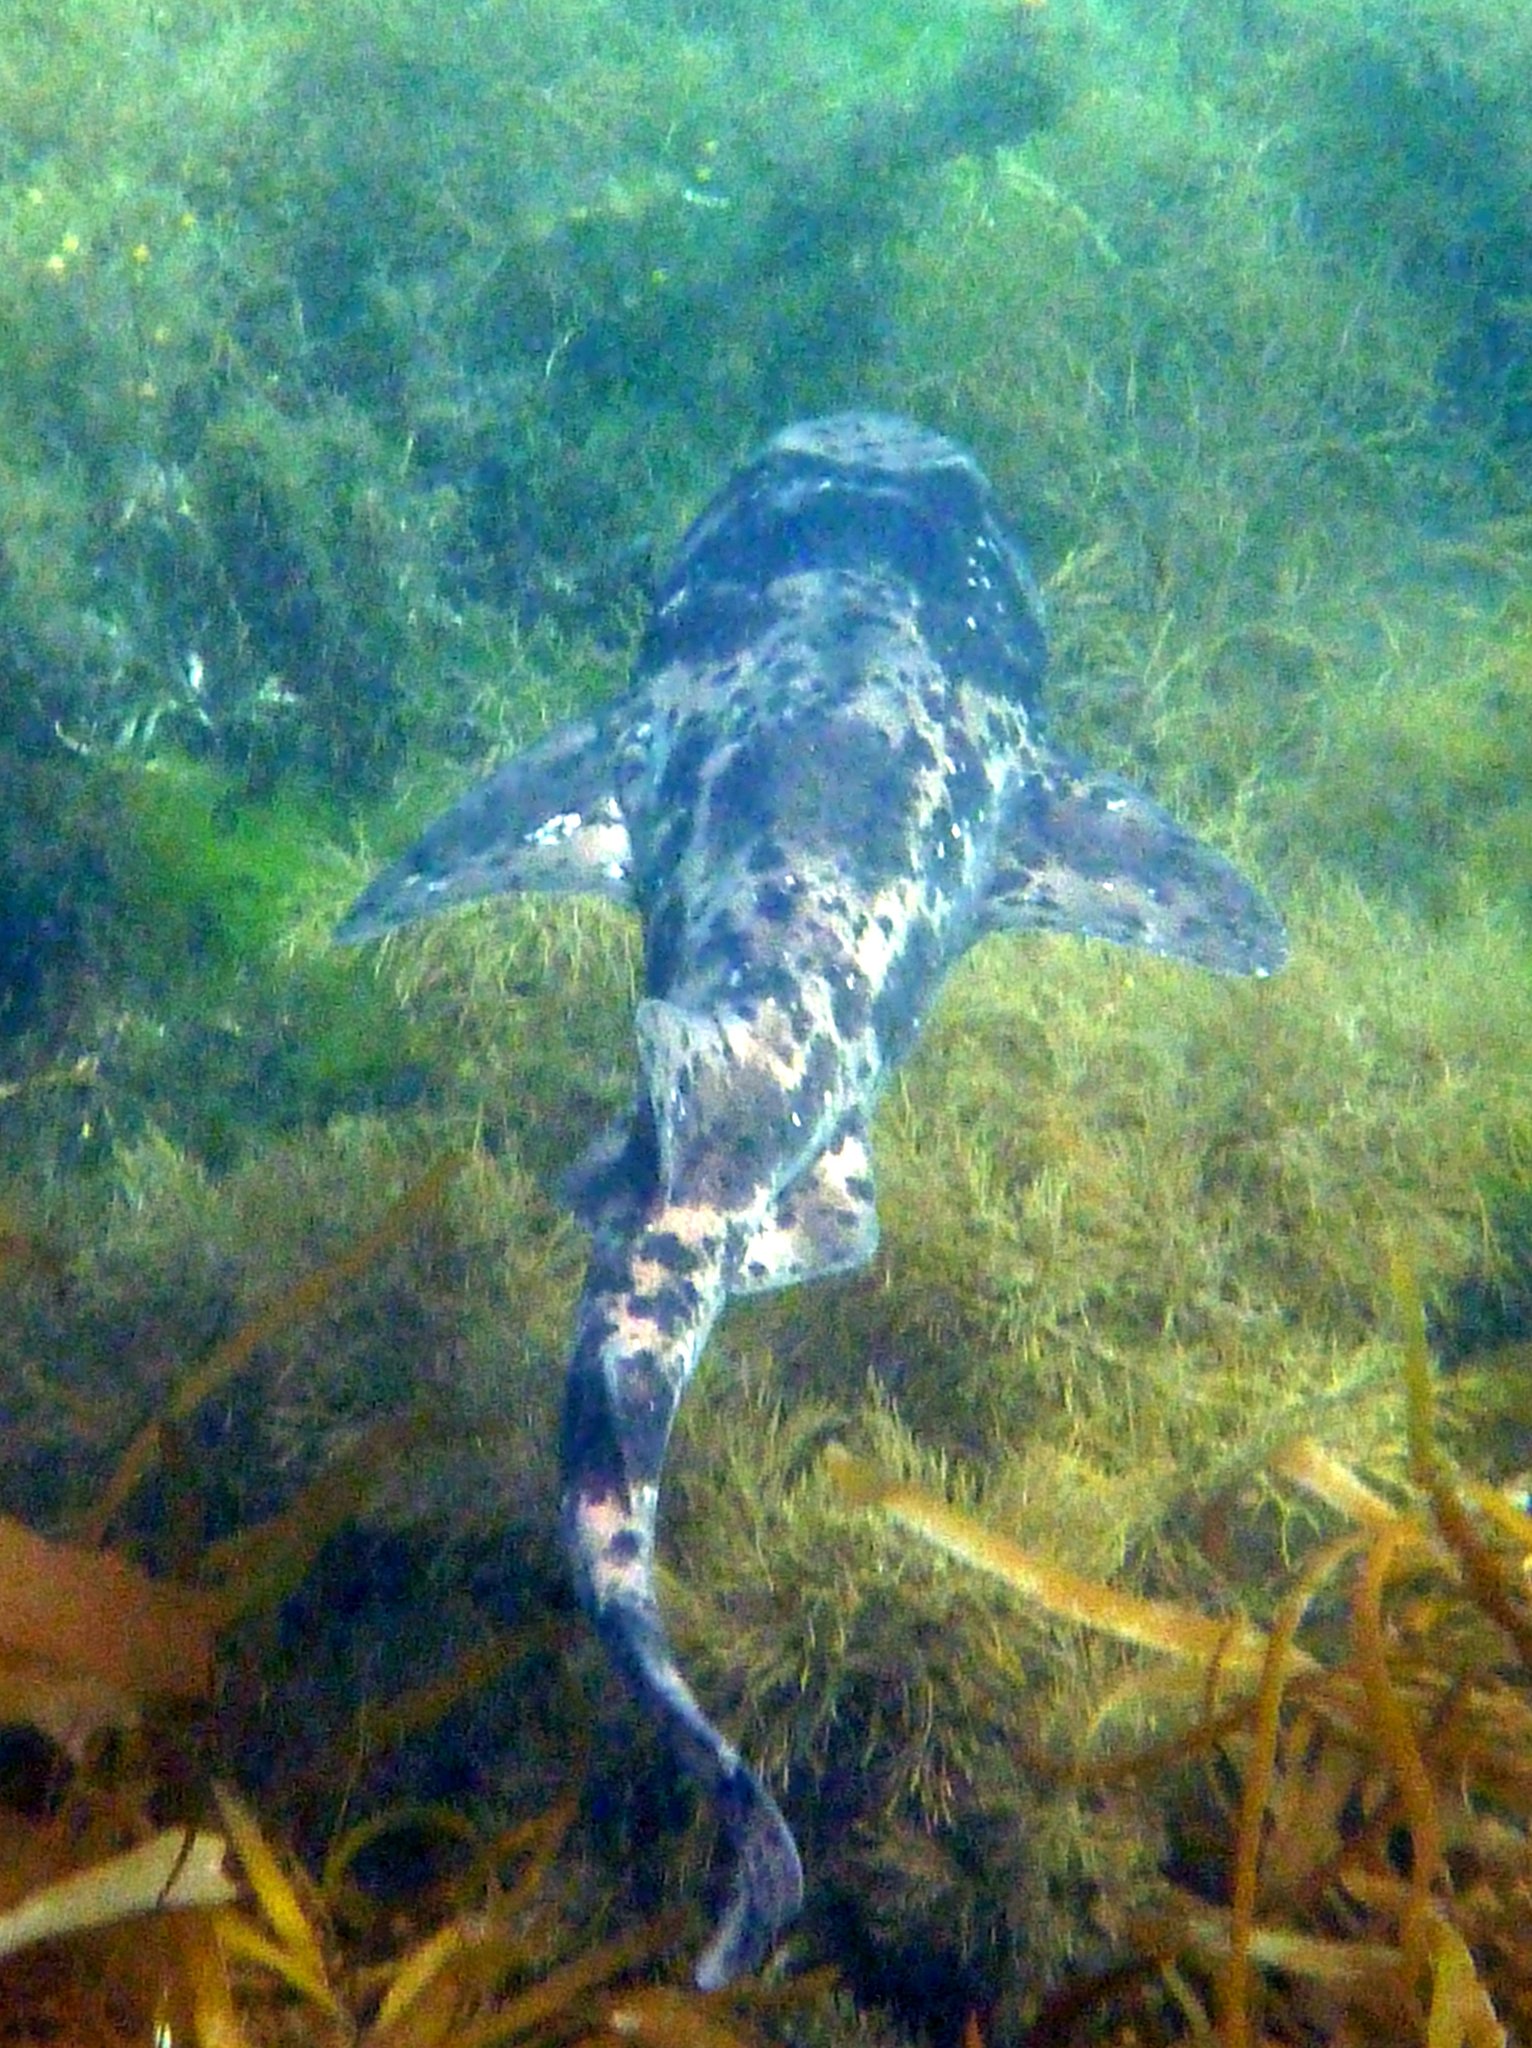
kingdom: Animalia
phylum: Chordata
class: Elasmobranchii
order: Carcharhiniformes
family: Scyliorhinidae
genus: Cephaloscyllium
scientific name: Cephaloscyllium laticeps
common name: Australian swellshark
